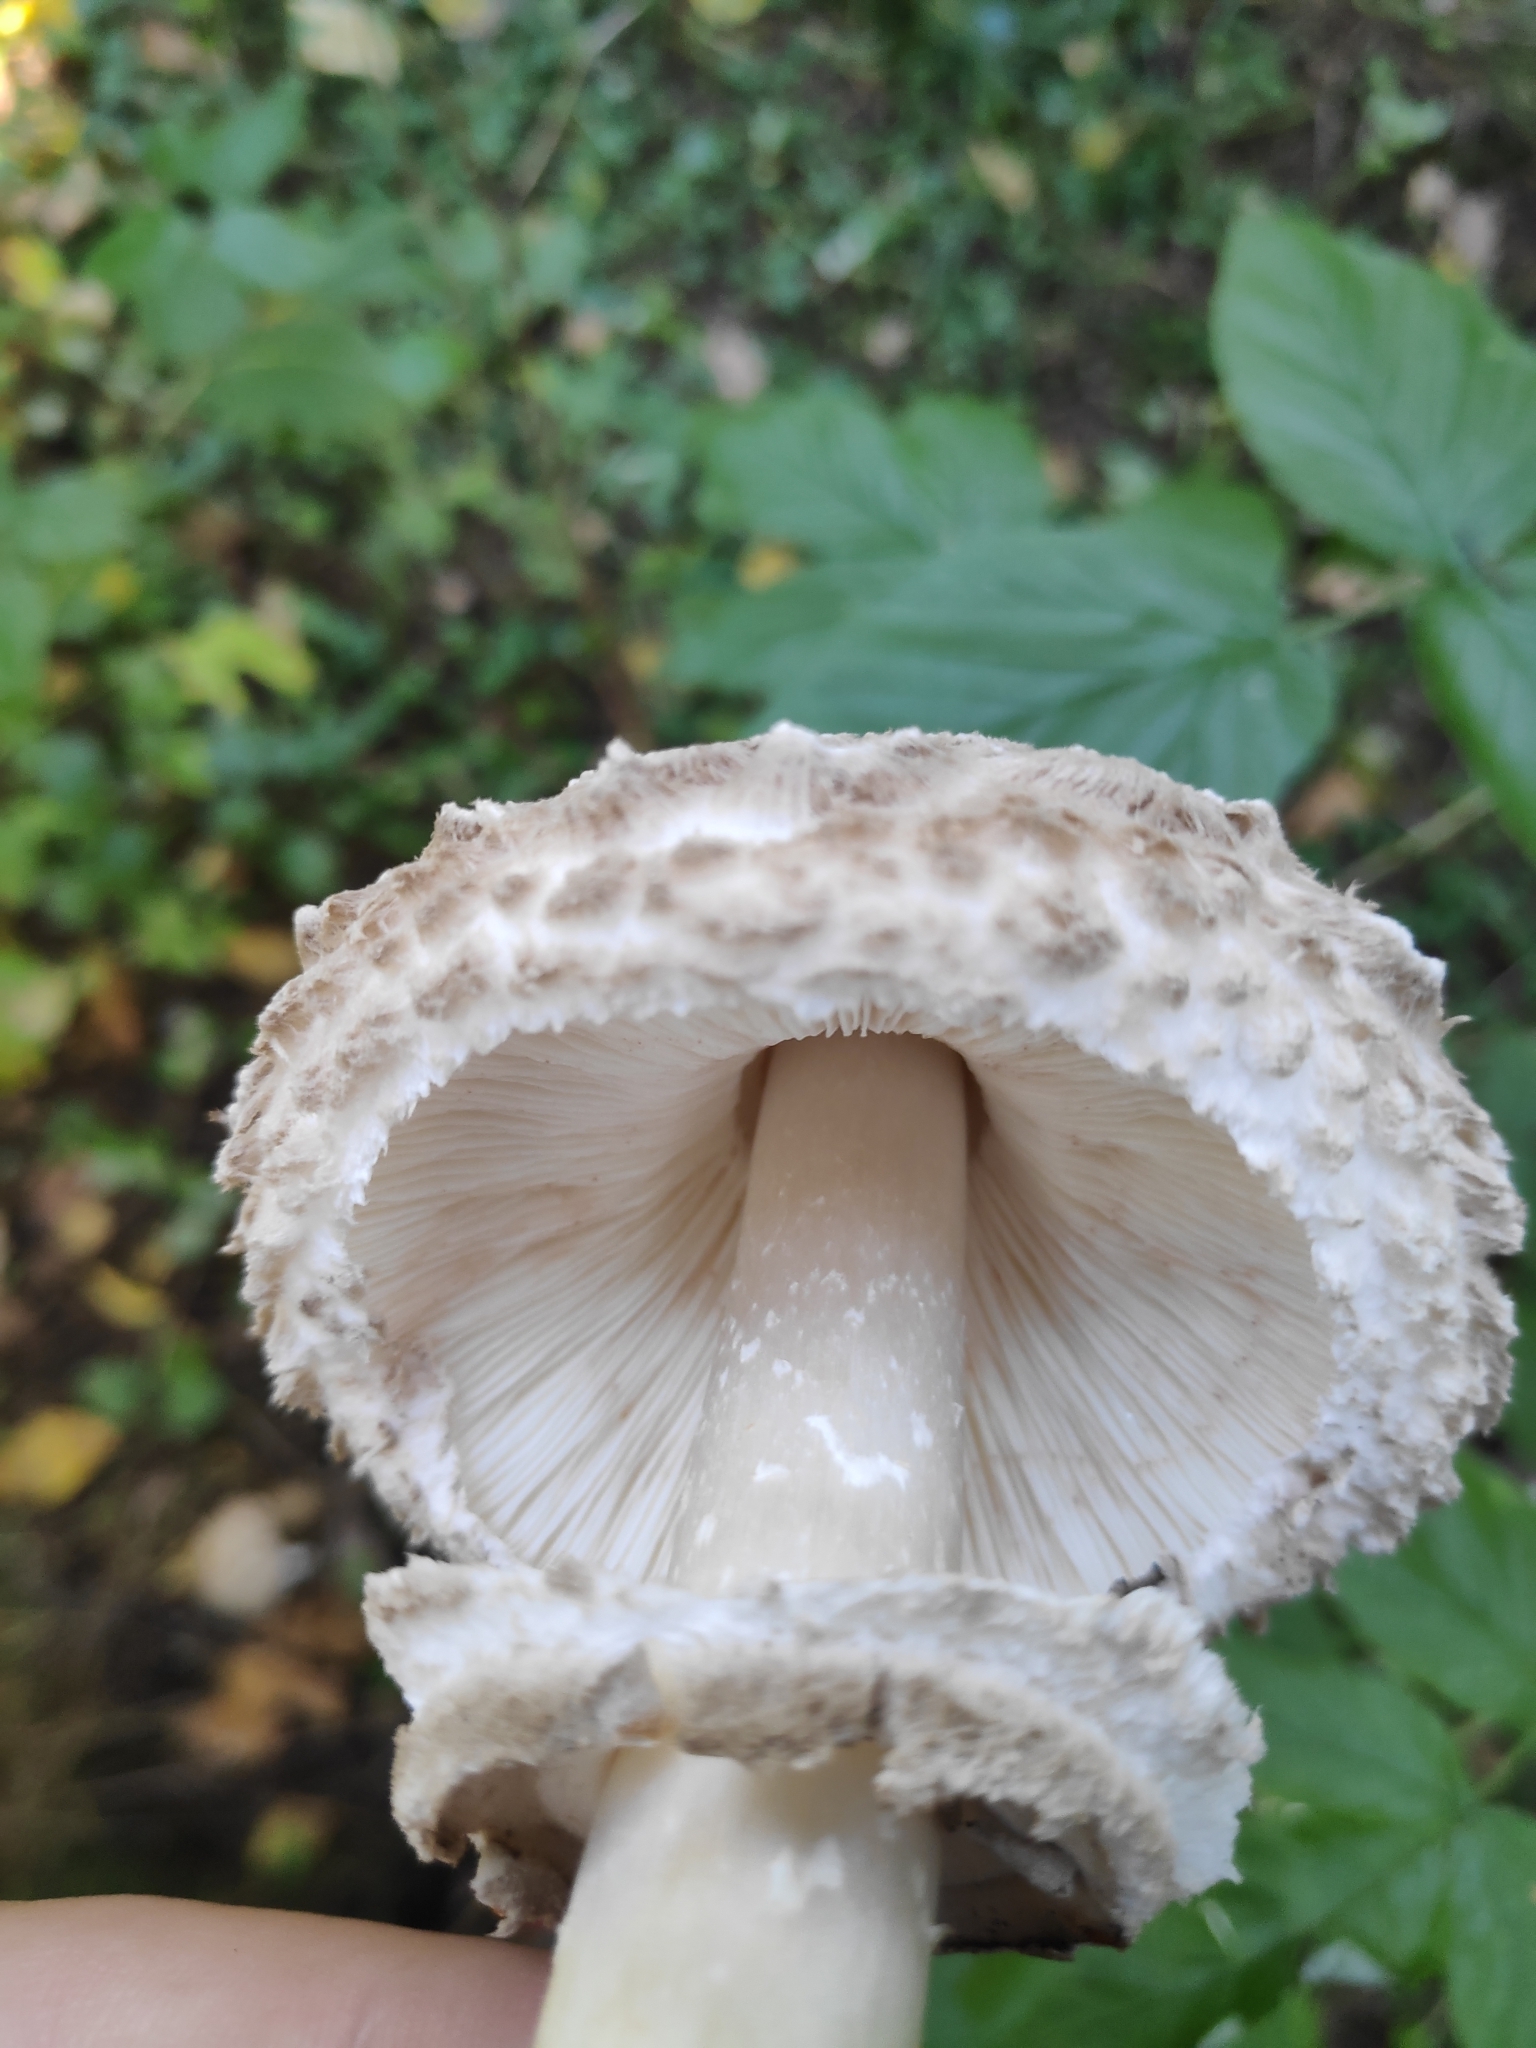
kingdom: Fungi
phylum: Basidiomycota
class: Agaricomycetes
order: Agaricales
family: Agaricaceae
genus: Macrolepiota
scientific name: Macrolepiota procera
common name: Parasol
